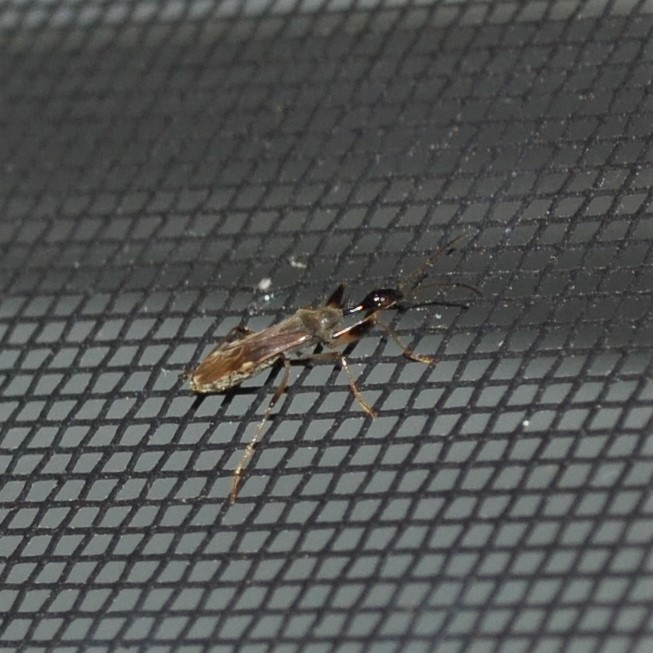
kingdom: Animalia
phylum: Arthropoda
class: Insecta
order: Hemiptera
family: Rhyparochromidae
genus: Myodocha
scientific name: Myodocha serripes
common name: Long-necked seed bug
